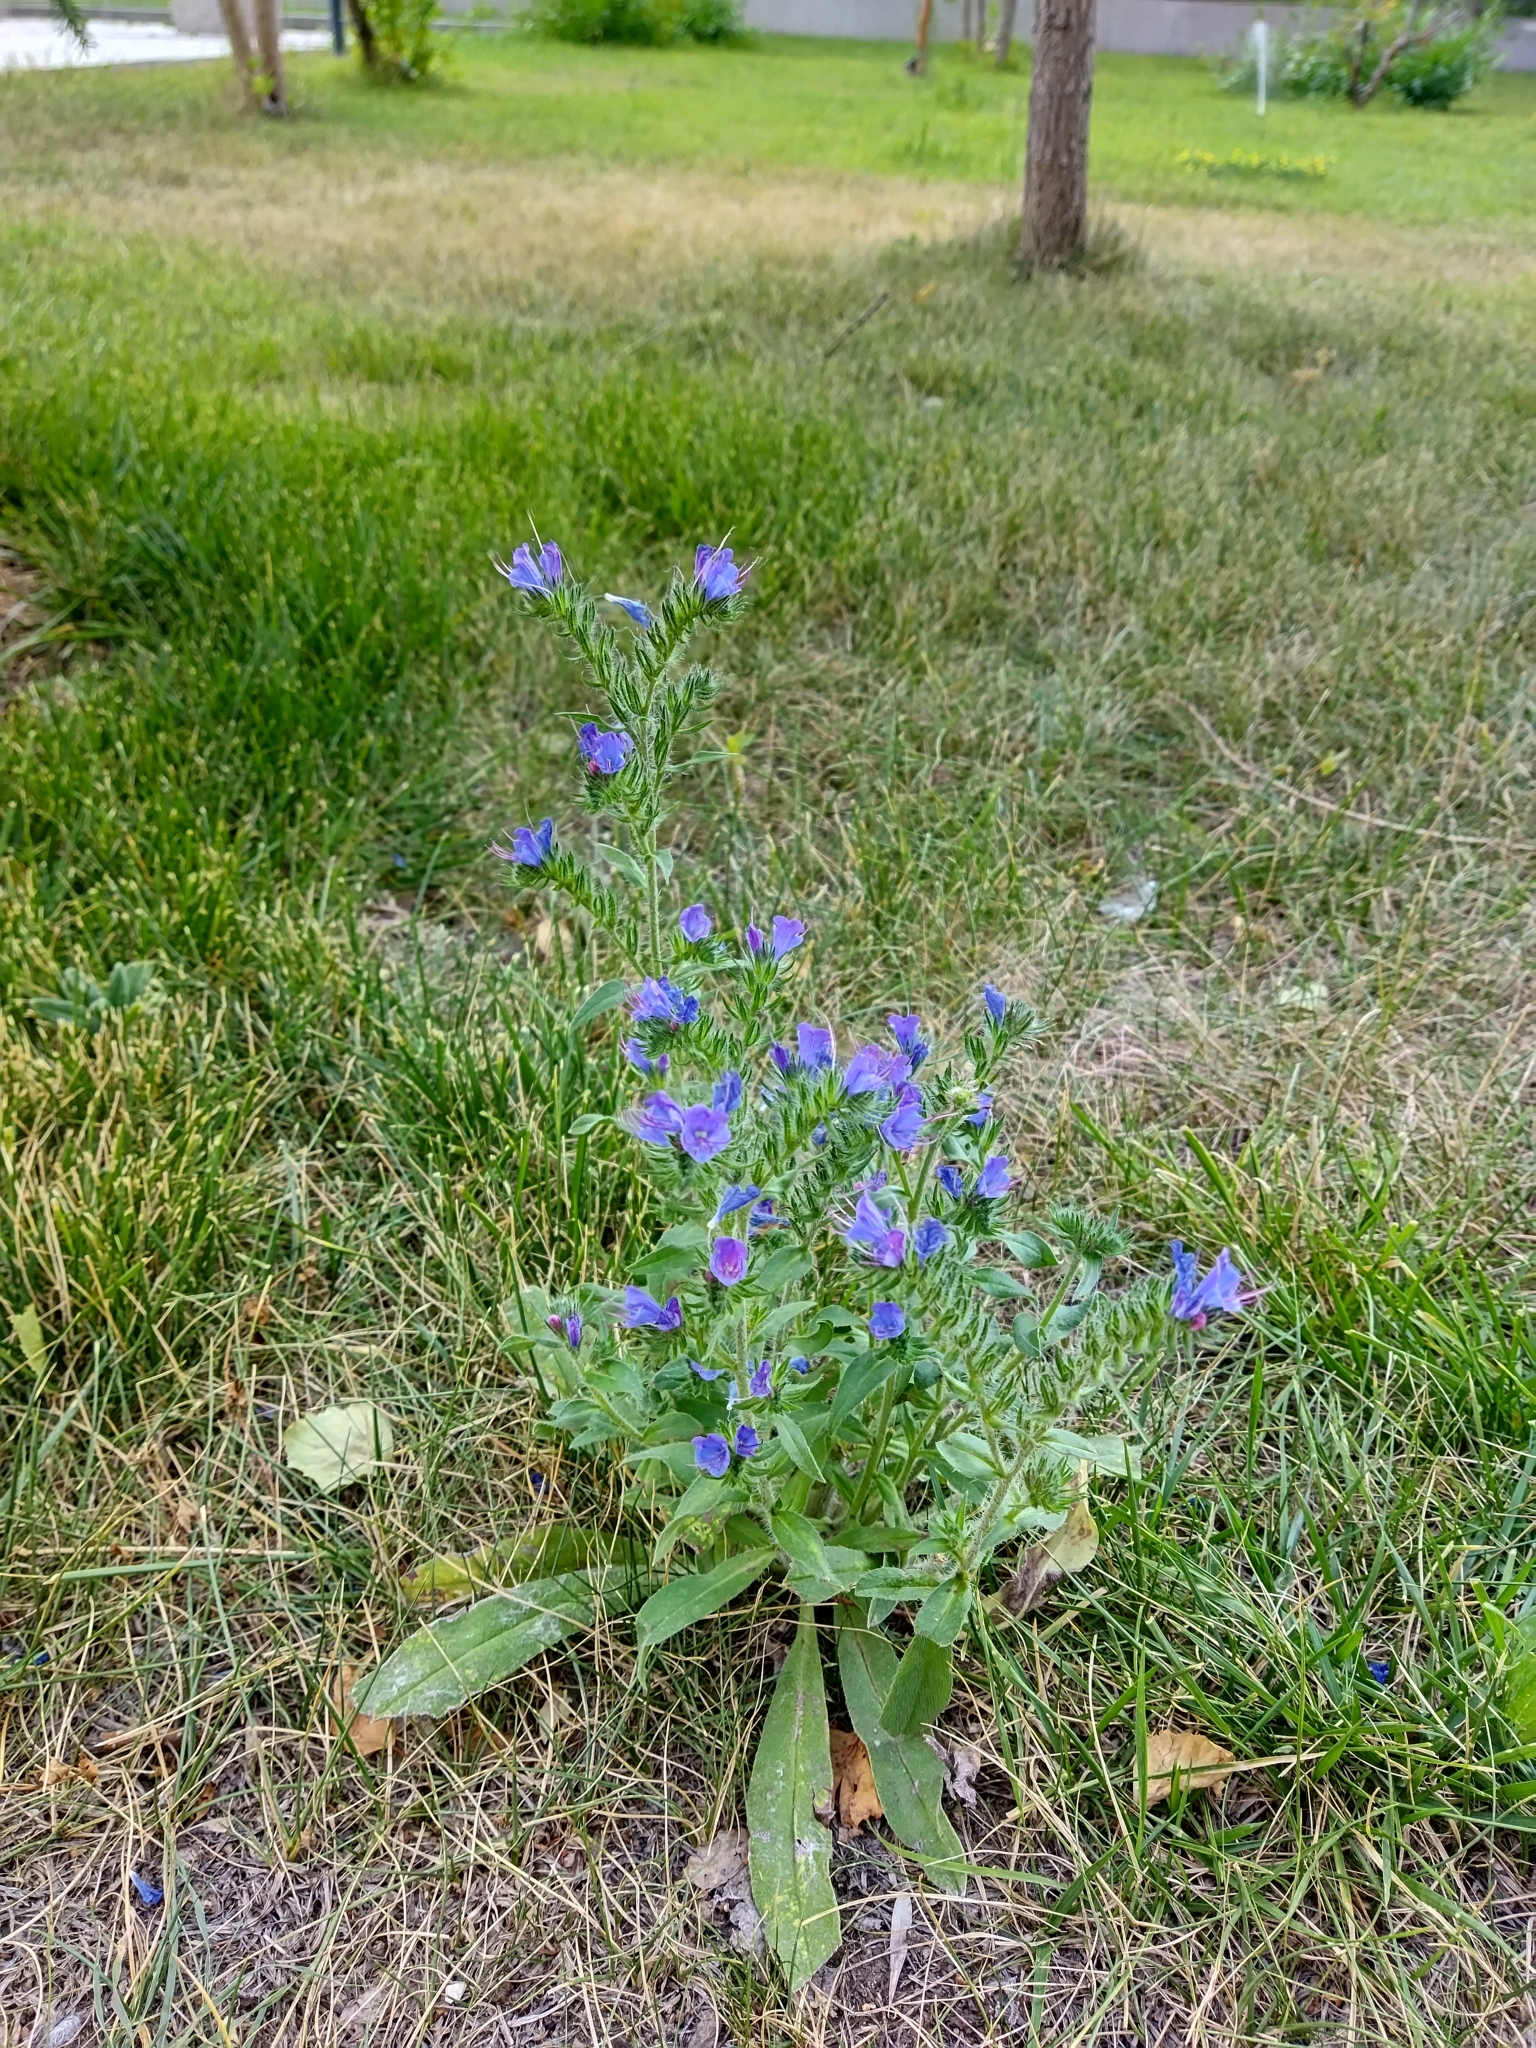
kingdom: Plantae
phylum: Tracheophyta
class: Magnoliopsida
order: Boraginales
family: Boraginaceae
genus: Echium
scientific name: Echium vulgare
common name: Common viper's bugloss
